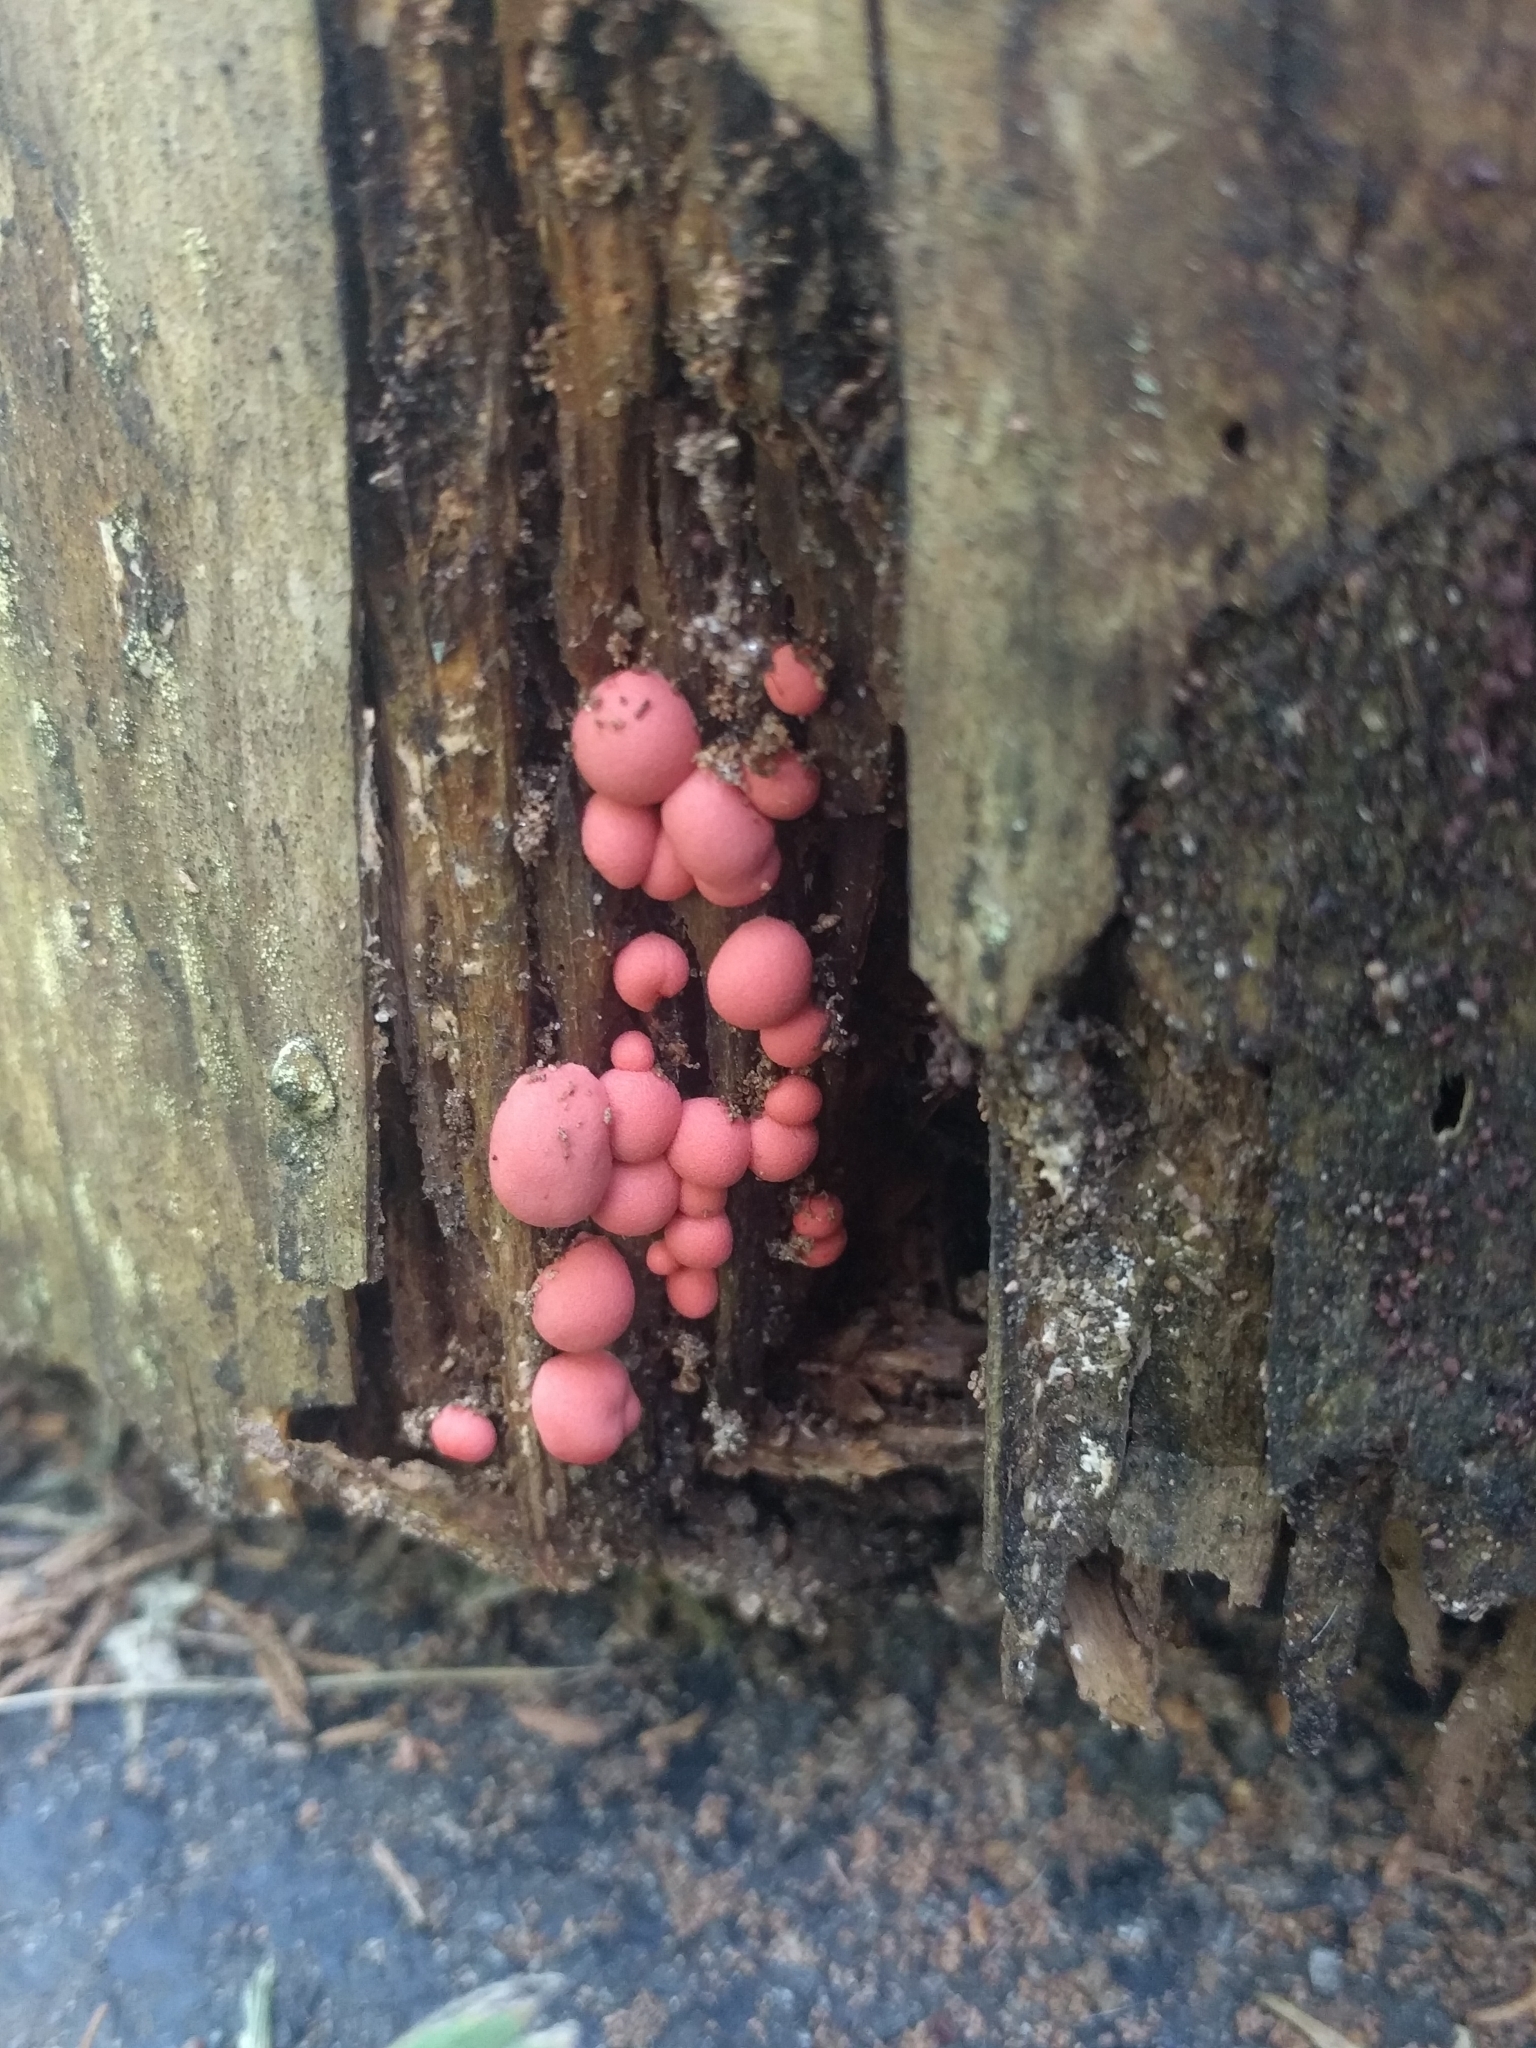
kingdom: Protozoa
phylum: Mycetozoa
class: Myxomycetes
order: Cribrariales
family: Tubiferaceae
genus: Lycogala
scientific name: Lycogala epidendrum
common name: Wolf's milk
